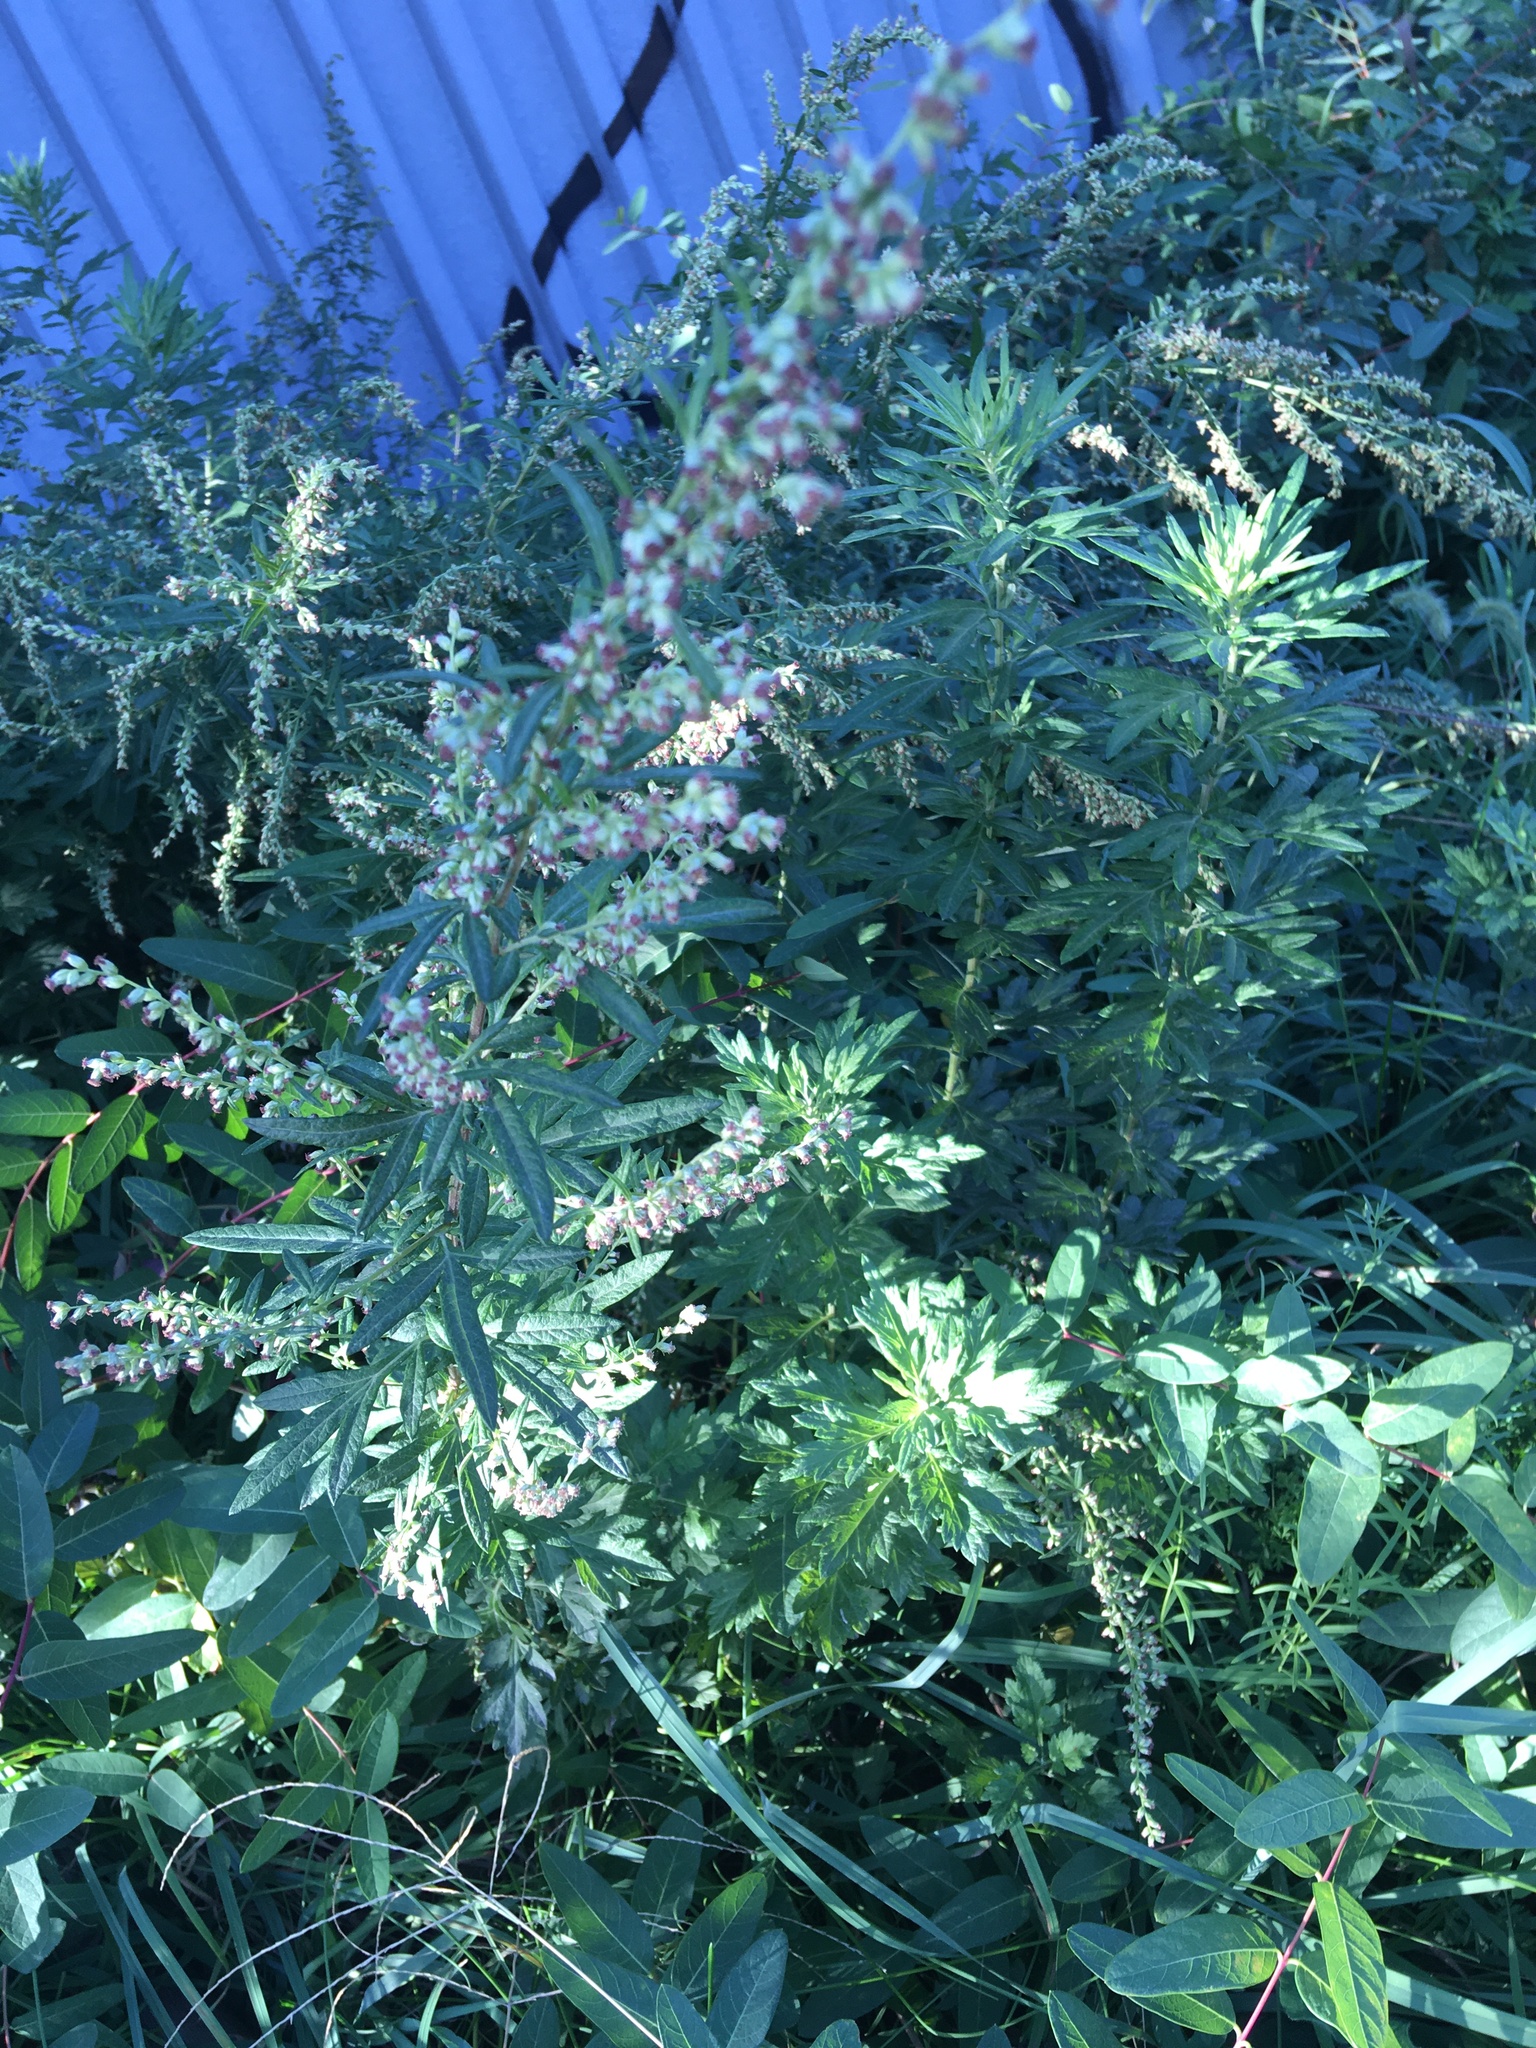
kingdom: Plantae
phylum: Tracheophyta
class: Magnoliopsida
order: Asterales
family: Asteraceae
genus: Artemisia
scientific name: Artemisia vulgaris
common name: Mugwort
